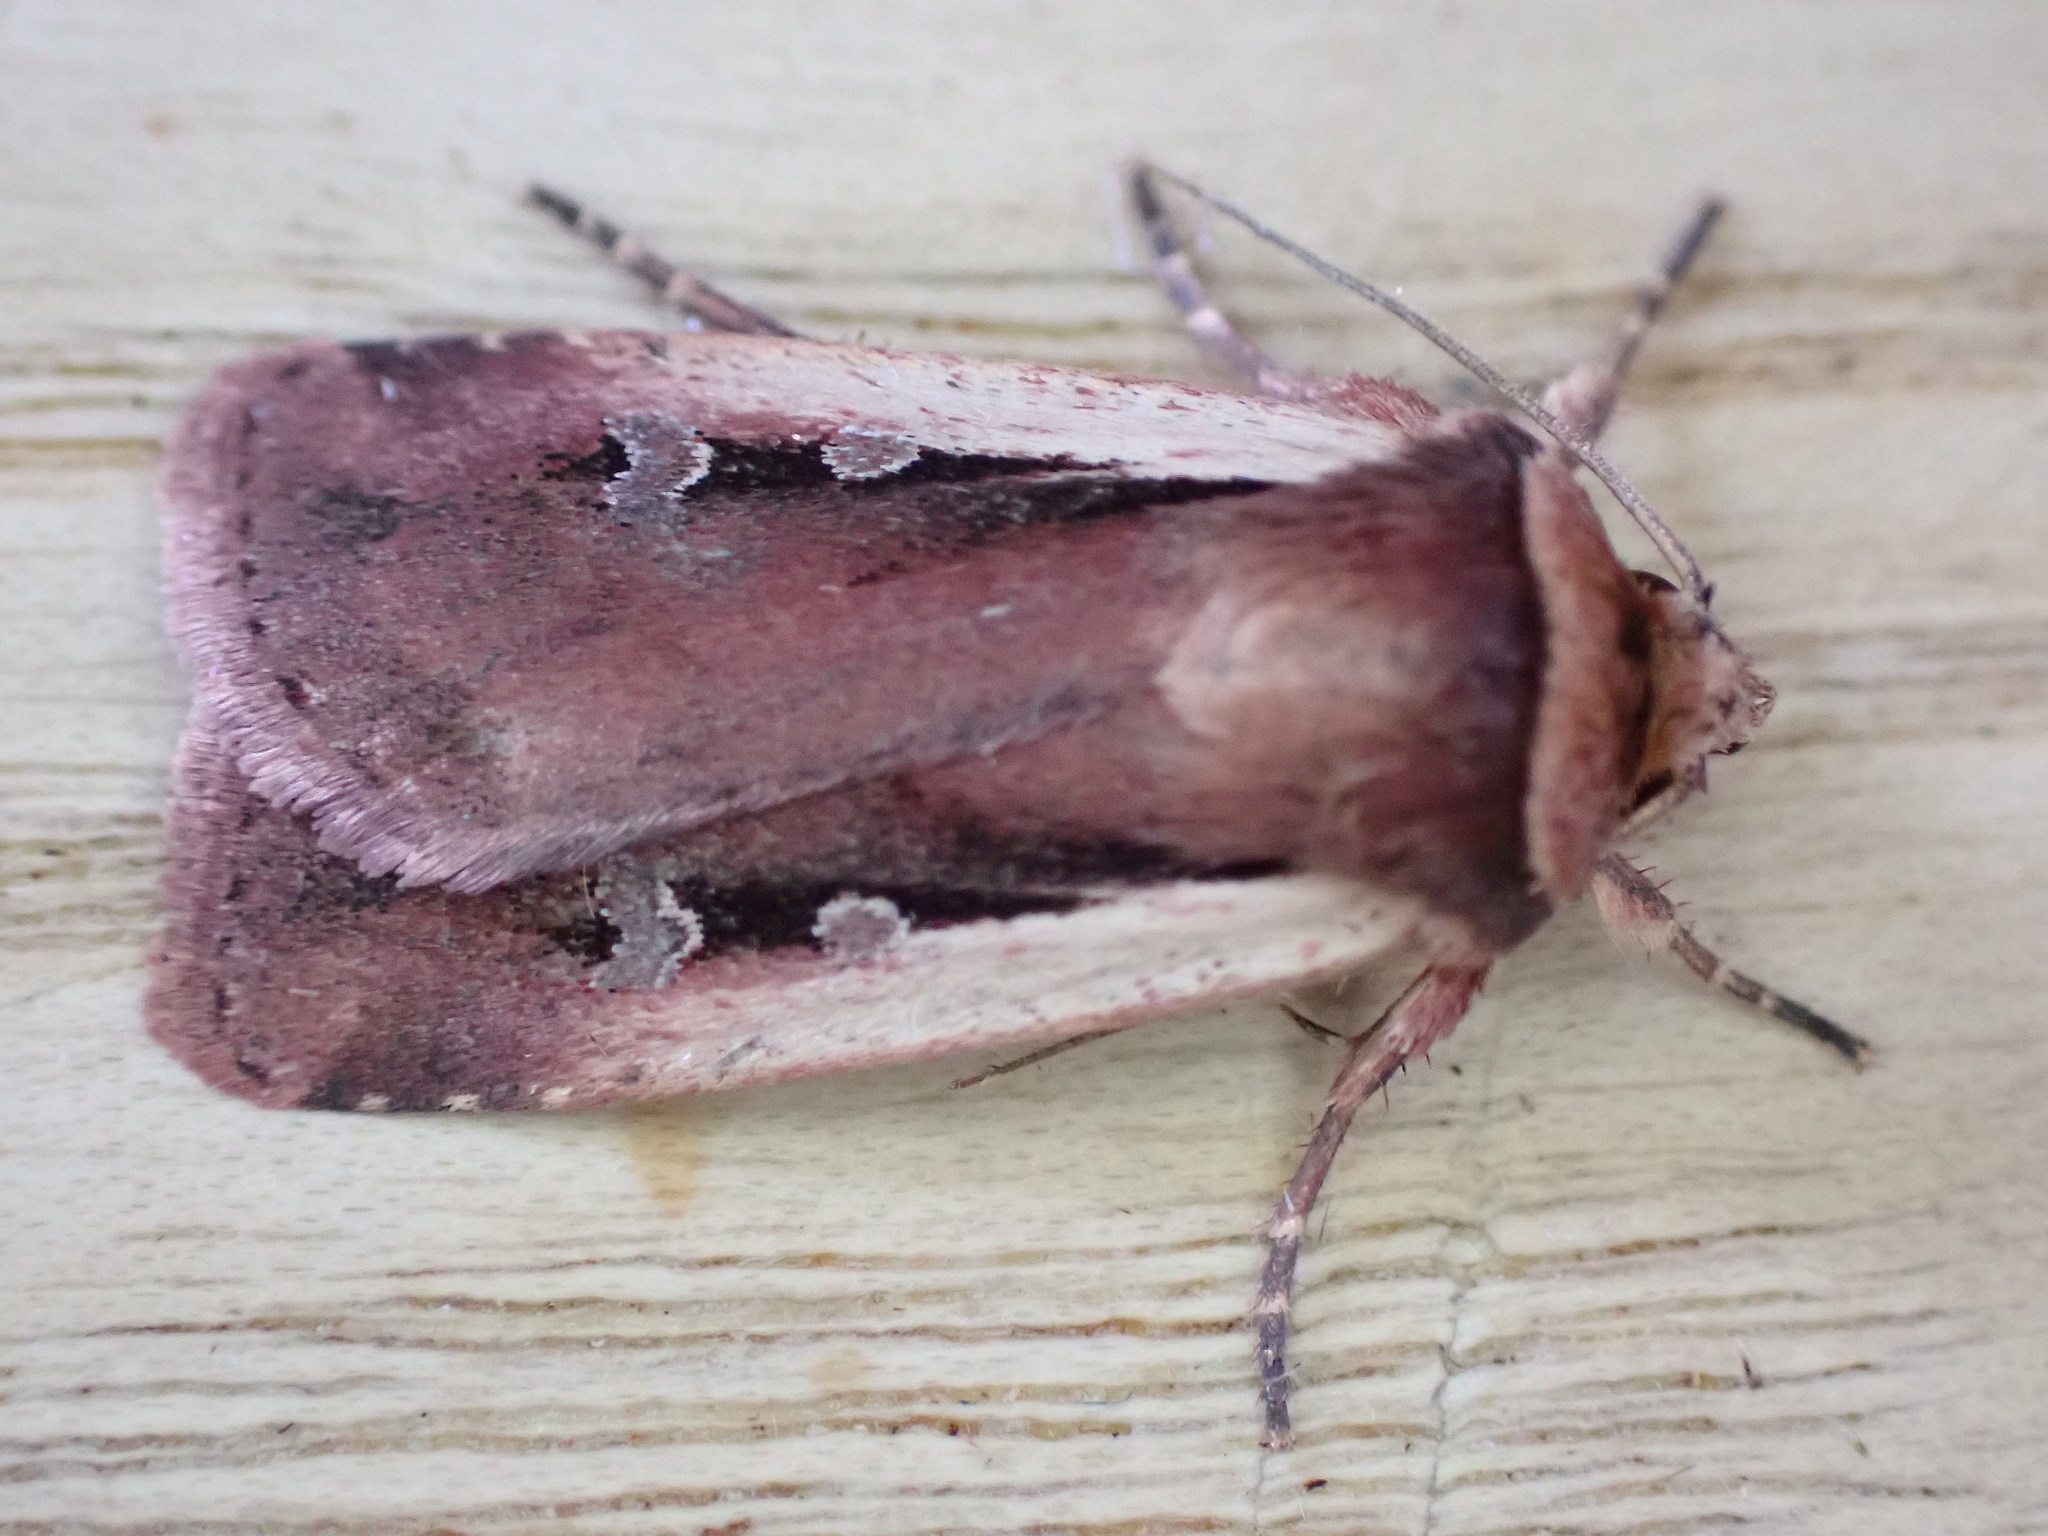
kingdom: Animalia
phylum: Arthropoda
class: Insecta
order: Lepidoptera
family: Noctuidae
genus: Ochropleura
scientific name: Ochropleura plecta
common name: Flame shoulder
